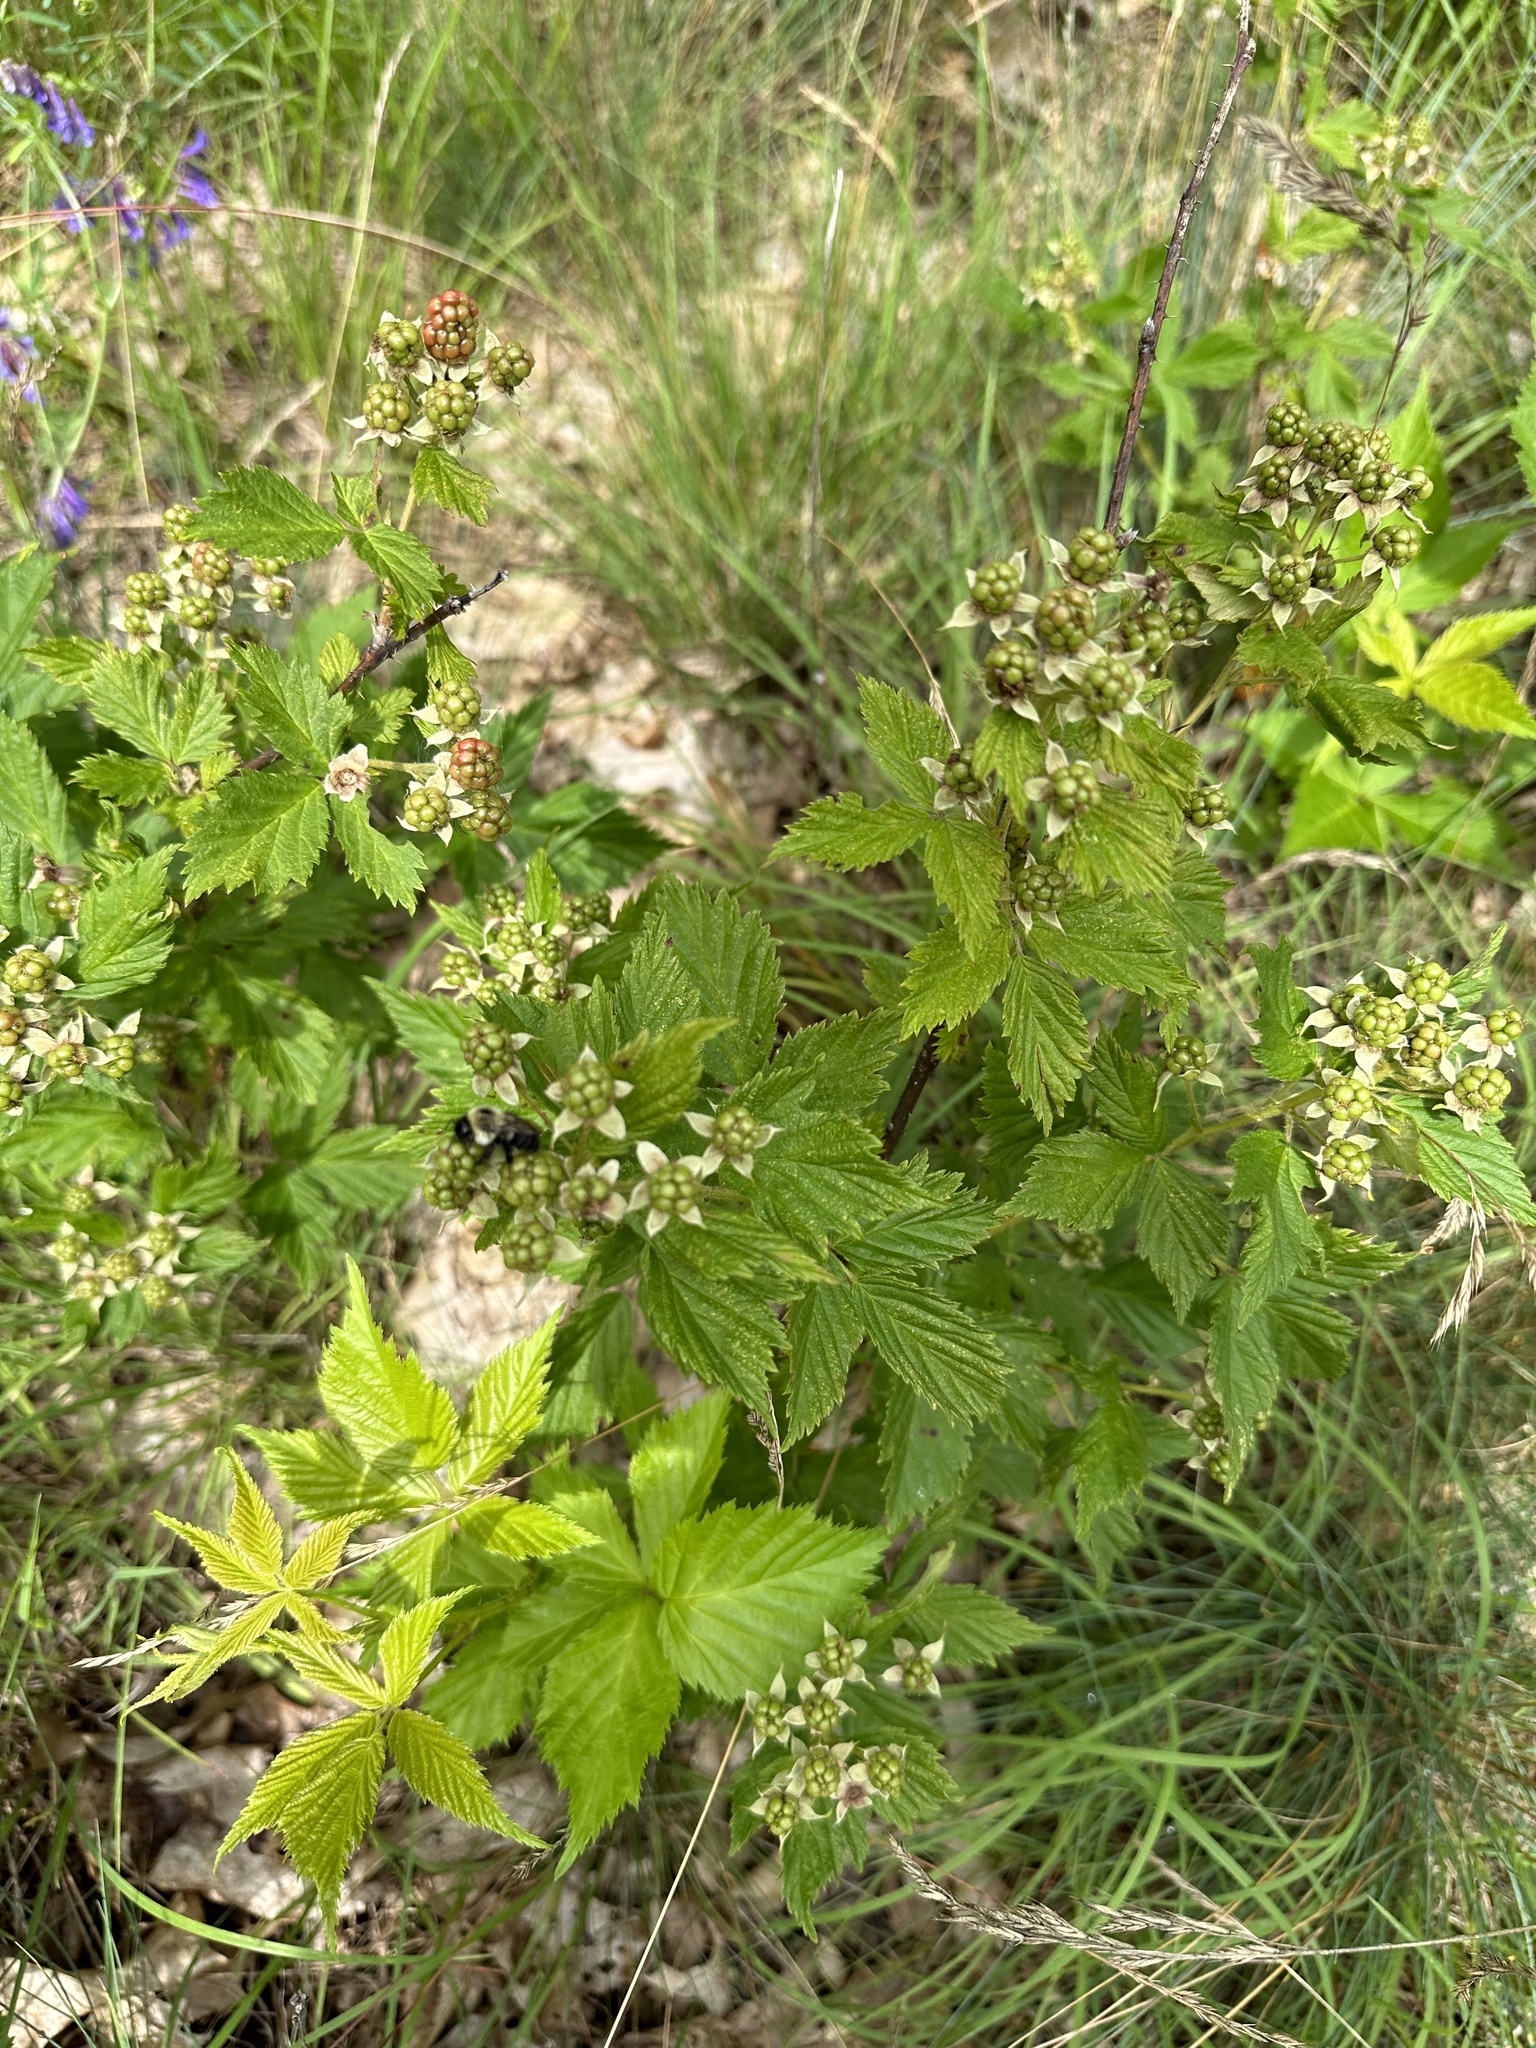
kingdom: Plantae
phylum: Tracheophyta
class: Magnoliopsida
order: Rosales
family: Rosaceae
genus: Rubus
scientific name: Rubus recurvans
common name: Recurved blackberry
